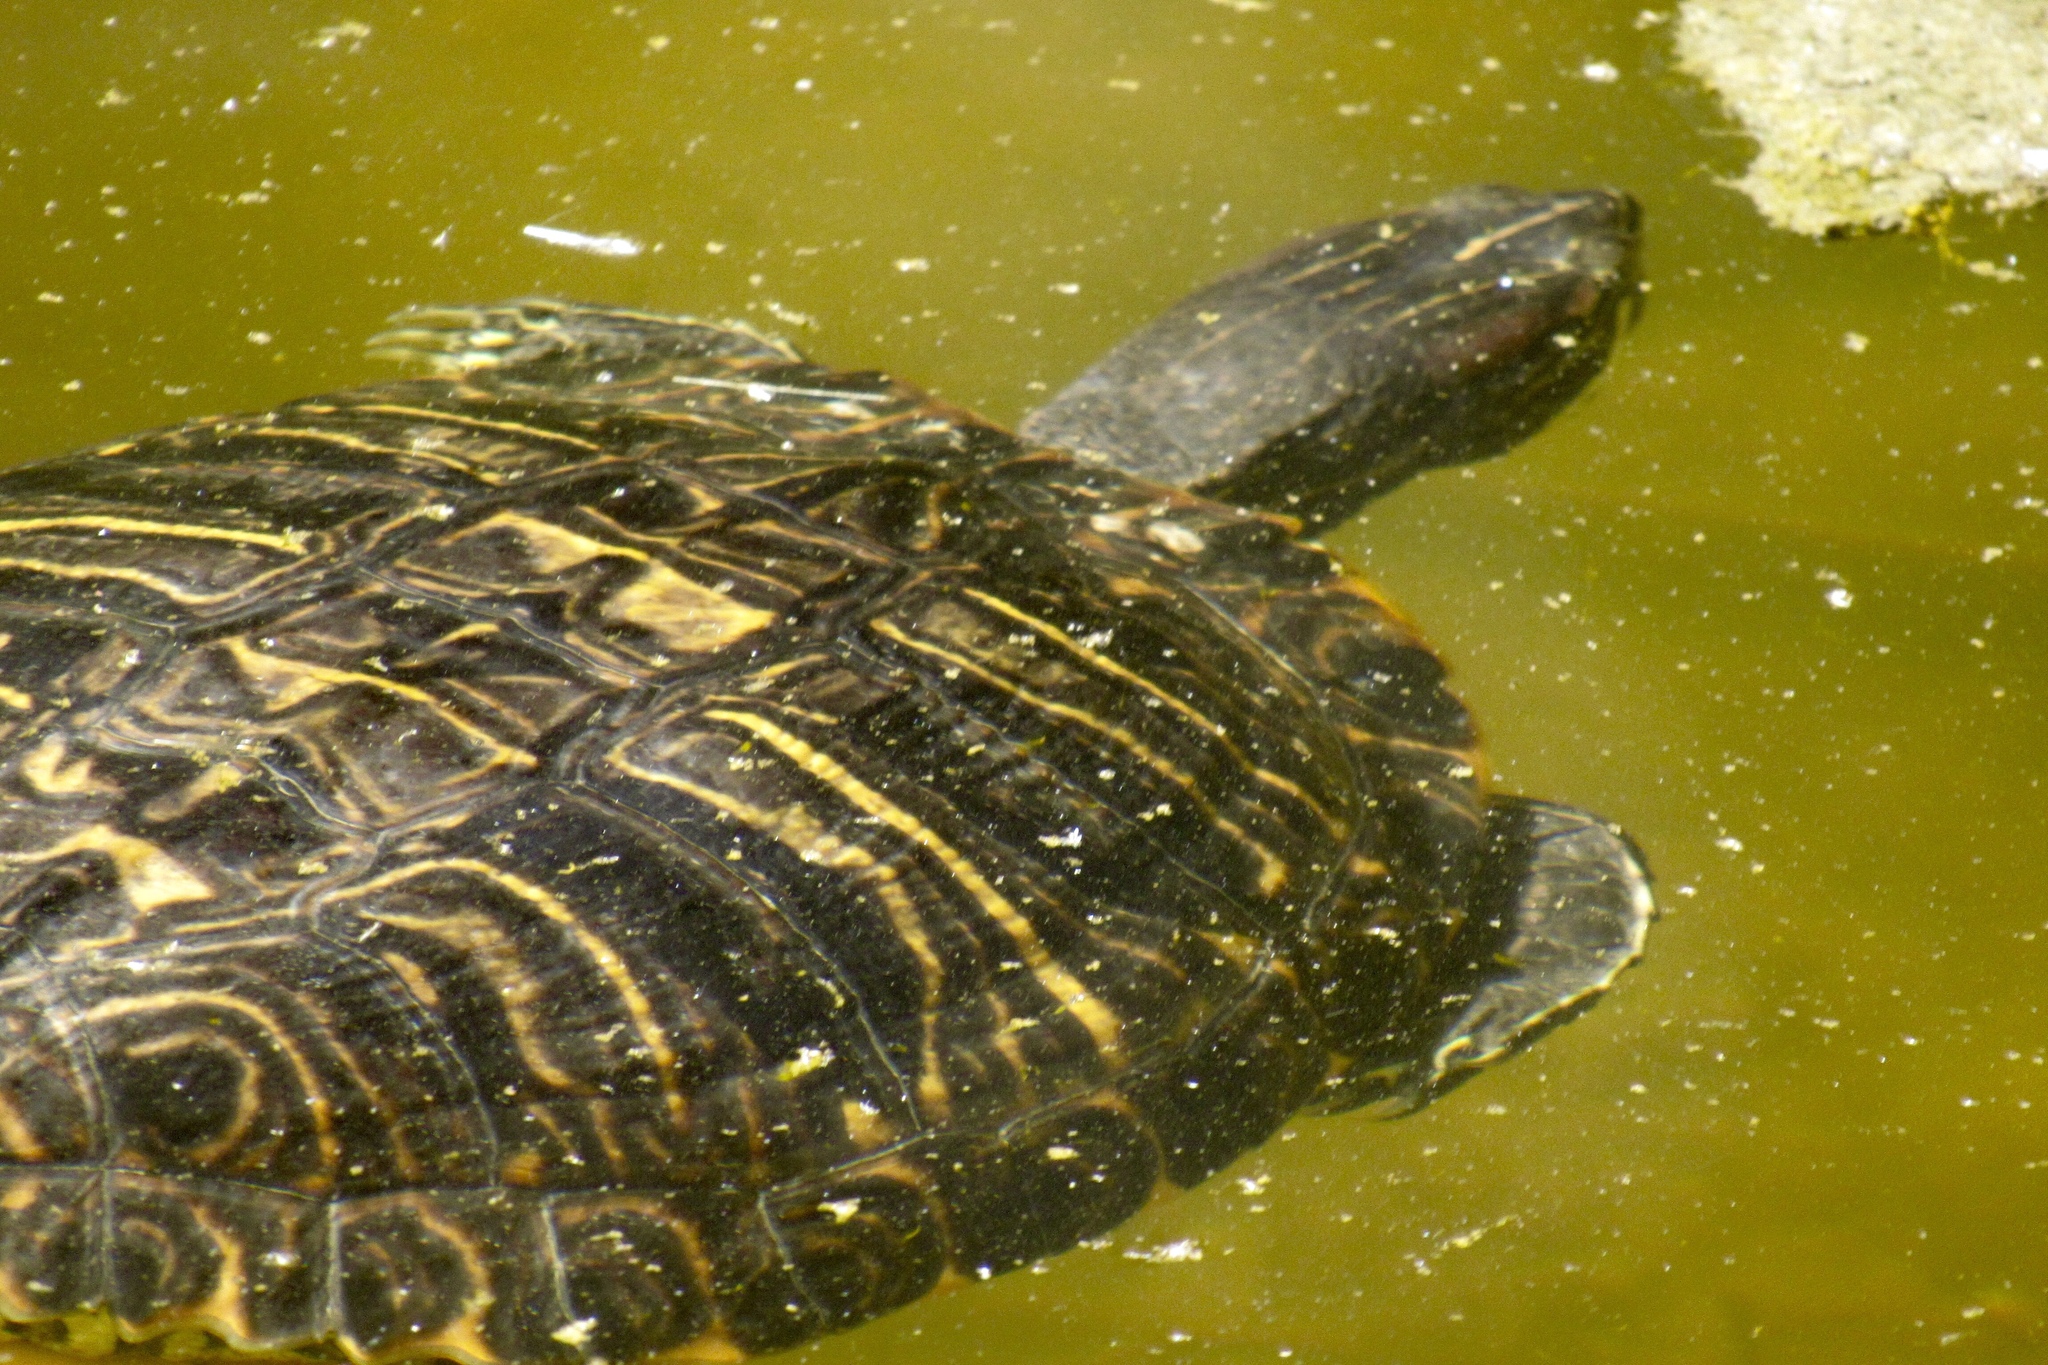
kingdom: Animalia
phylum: Chordata
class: Testudines
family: Emydidae
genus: Trachemys
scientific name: Trachemys scripta
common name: Slider
